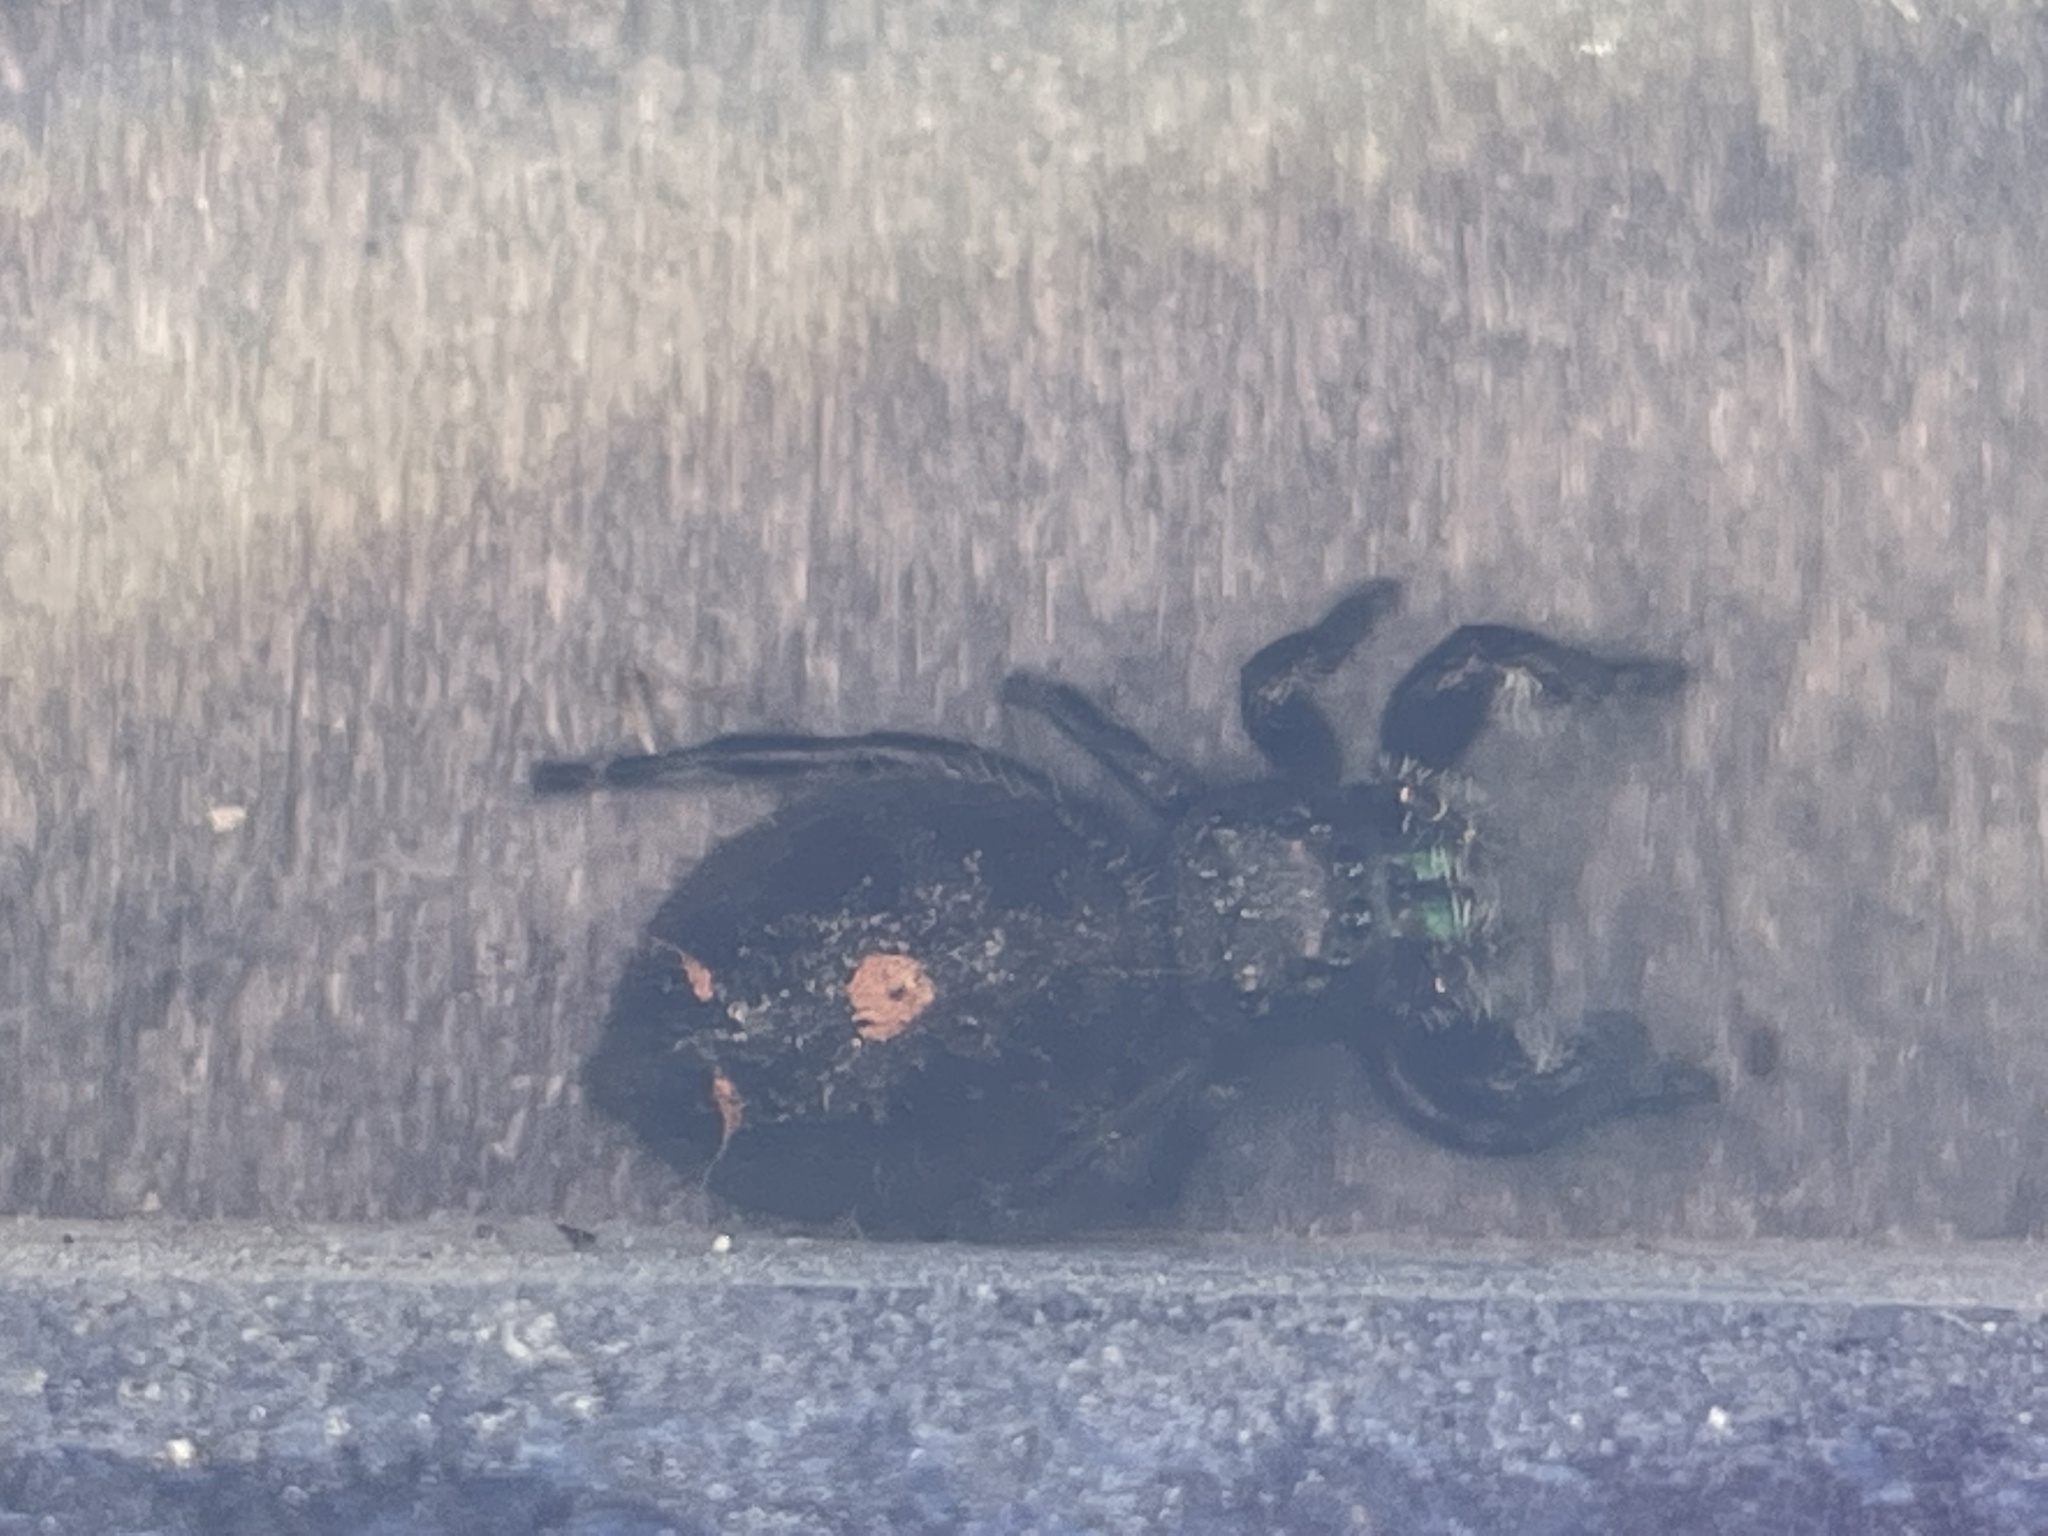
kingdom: Animalia
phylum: Arthropoda
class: Arachnida
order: Araneae
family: Salticidae
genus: Phidippus
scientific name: Phidippus audax
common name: Bold jumper
